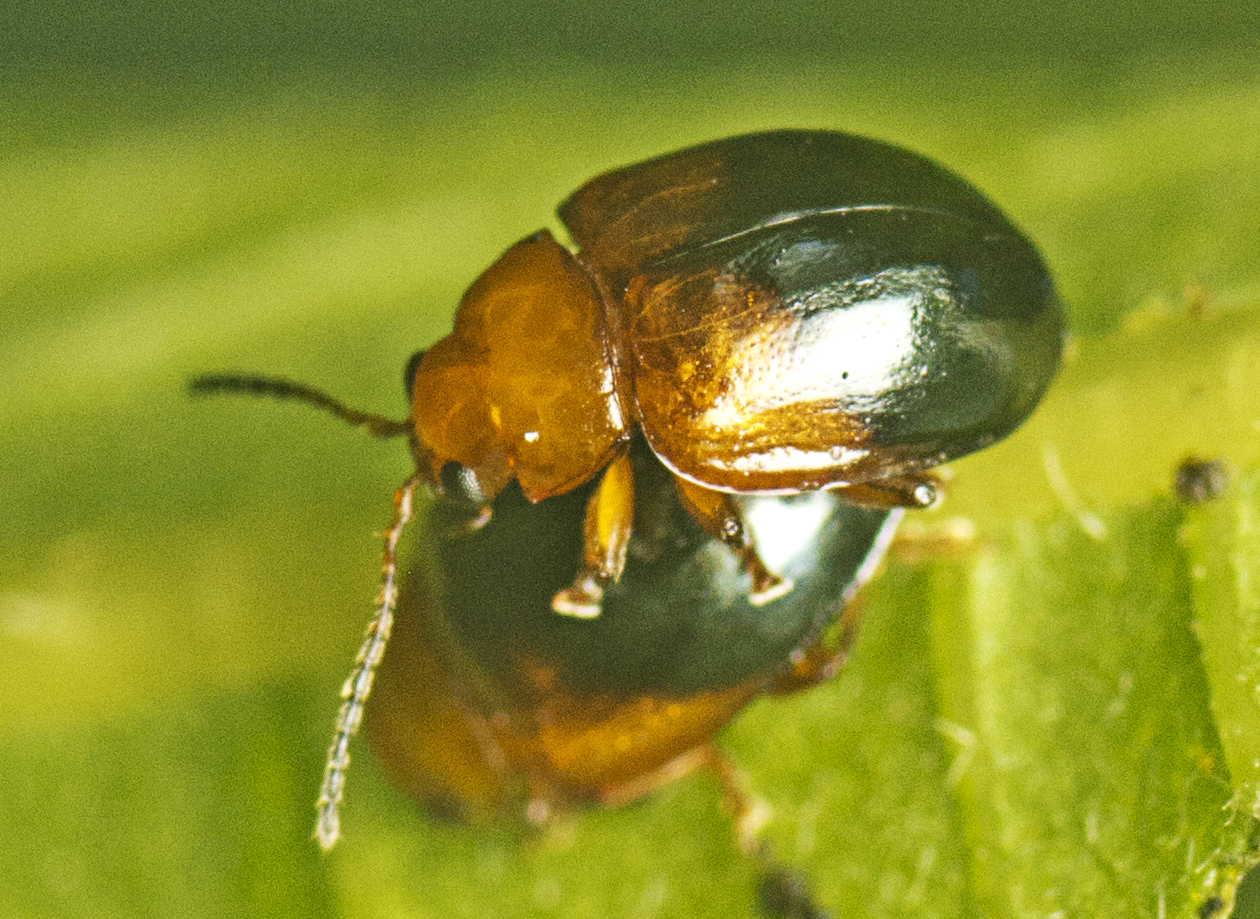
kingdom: Animalia
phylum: Arthropoda
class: Insecta
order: Coleoptera
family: Chrysomelidae
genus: Nisotra
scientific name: Nisotra
